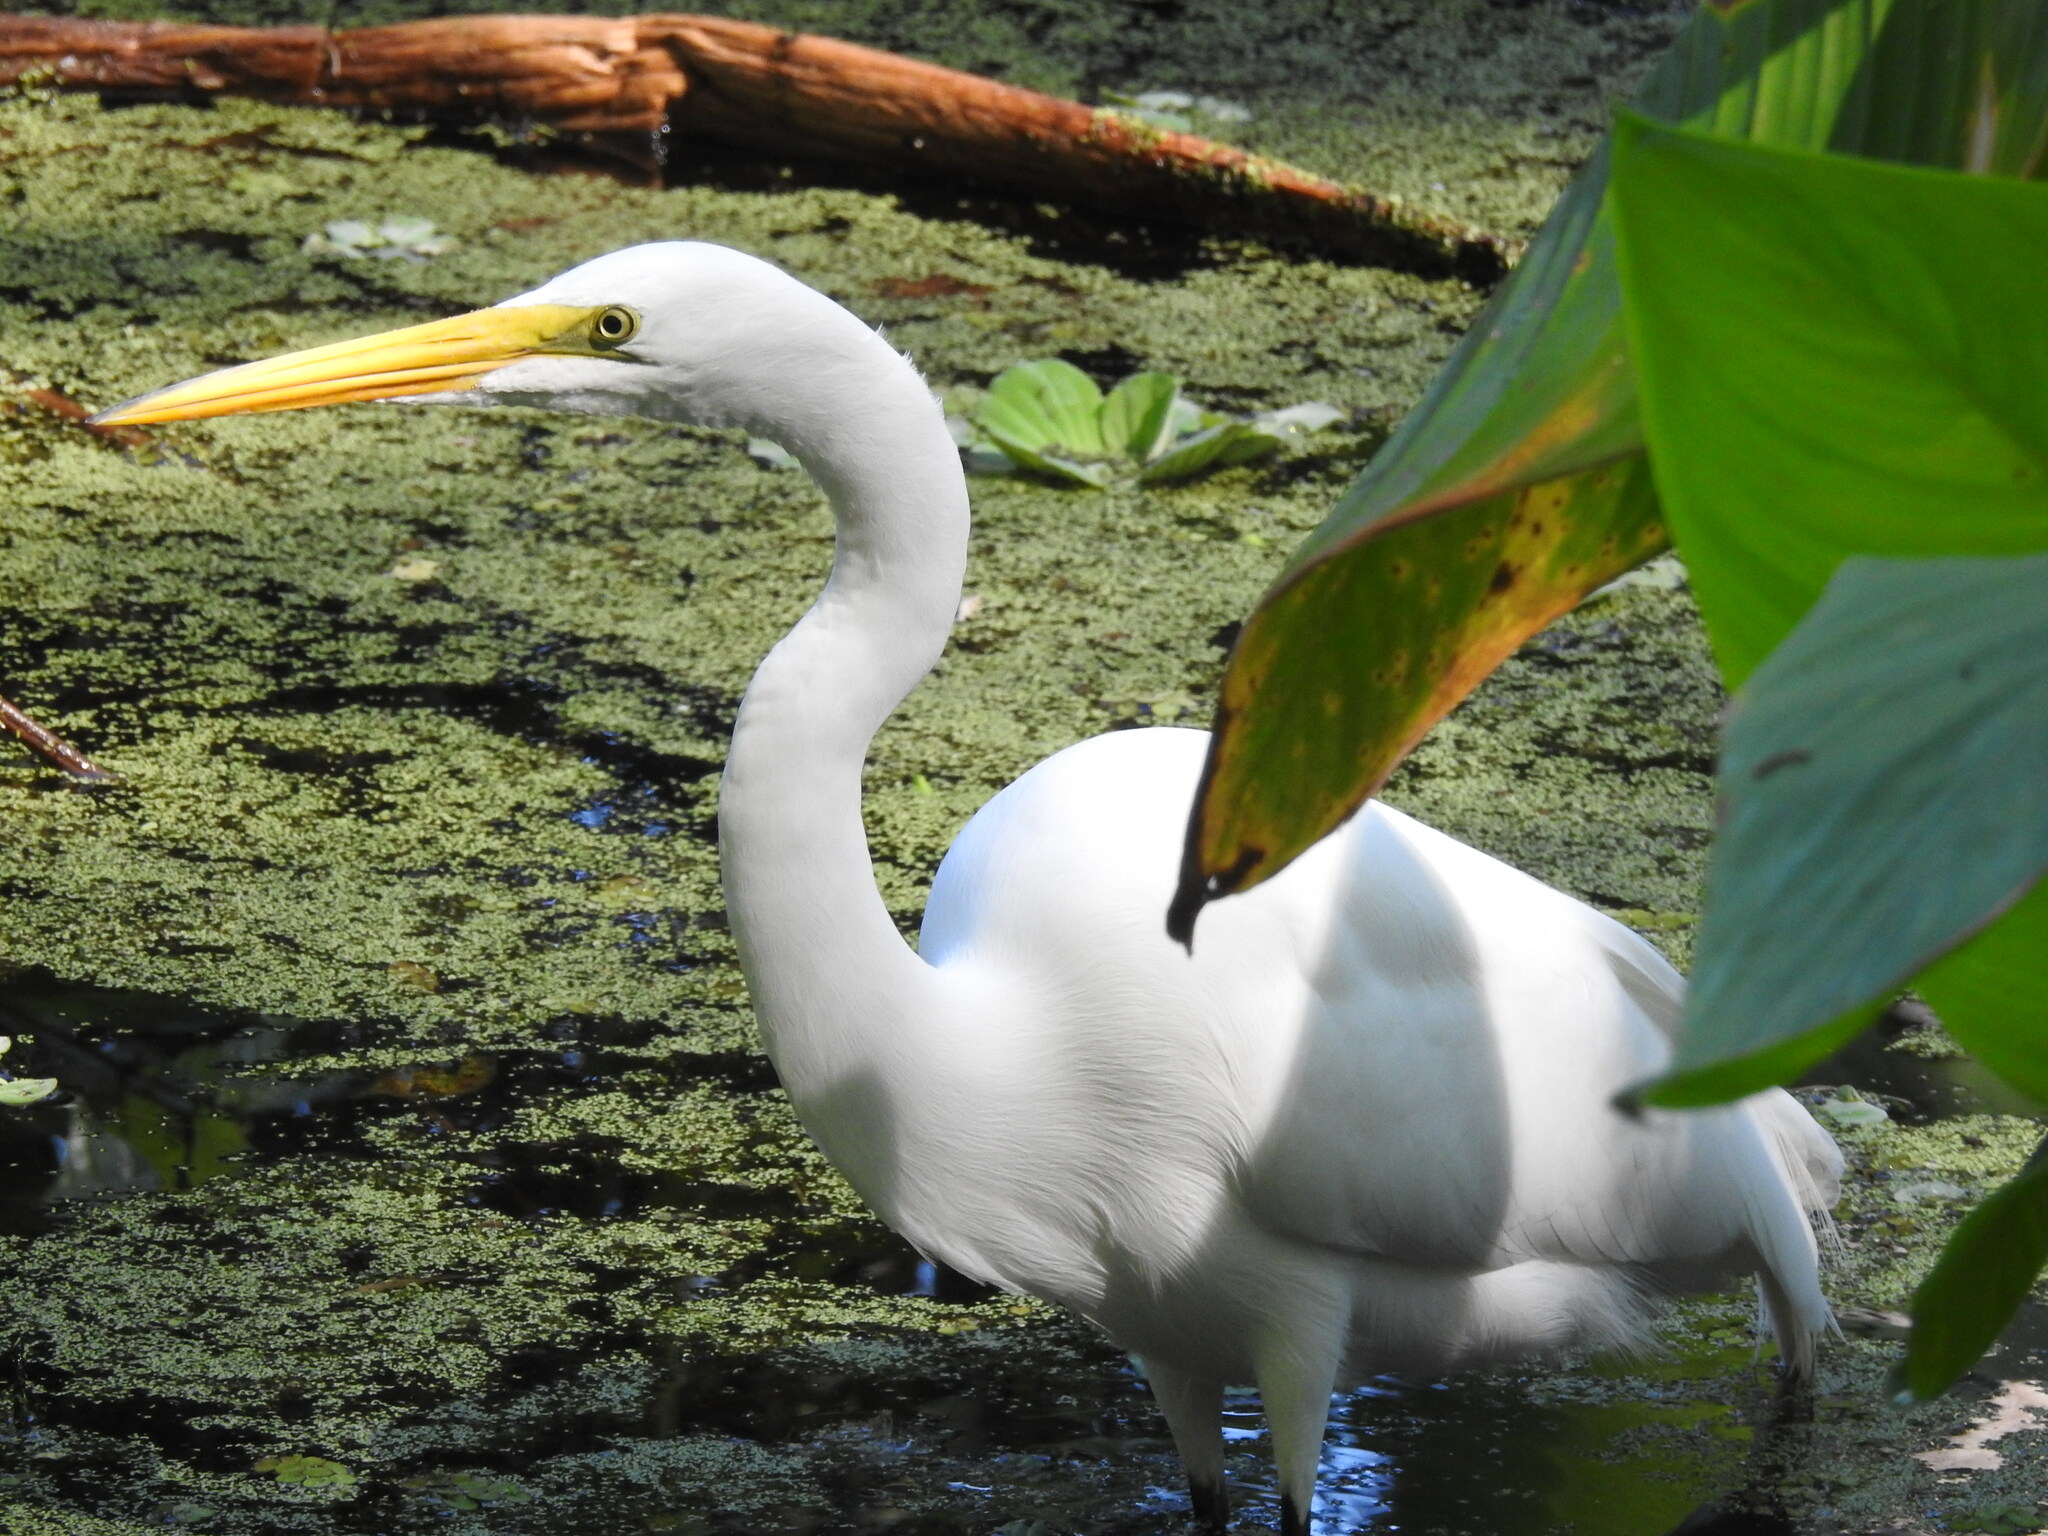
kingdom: Animalia
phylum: Chordata
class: Aves
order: Pelecaniformes
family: Ardeidae
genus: Ardea
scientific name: Ardea alba
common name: Great egret
